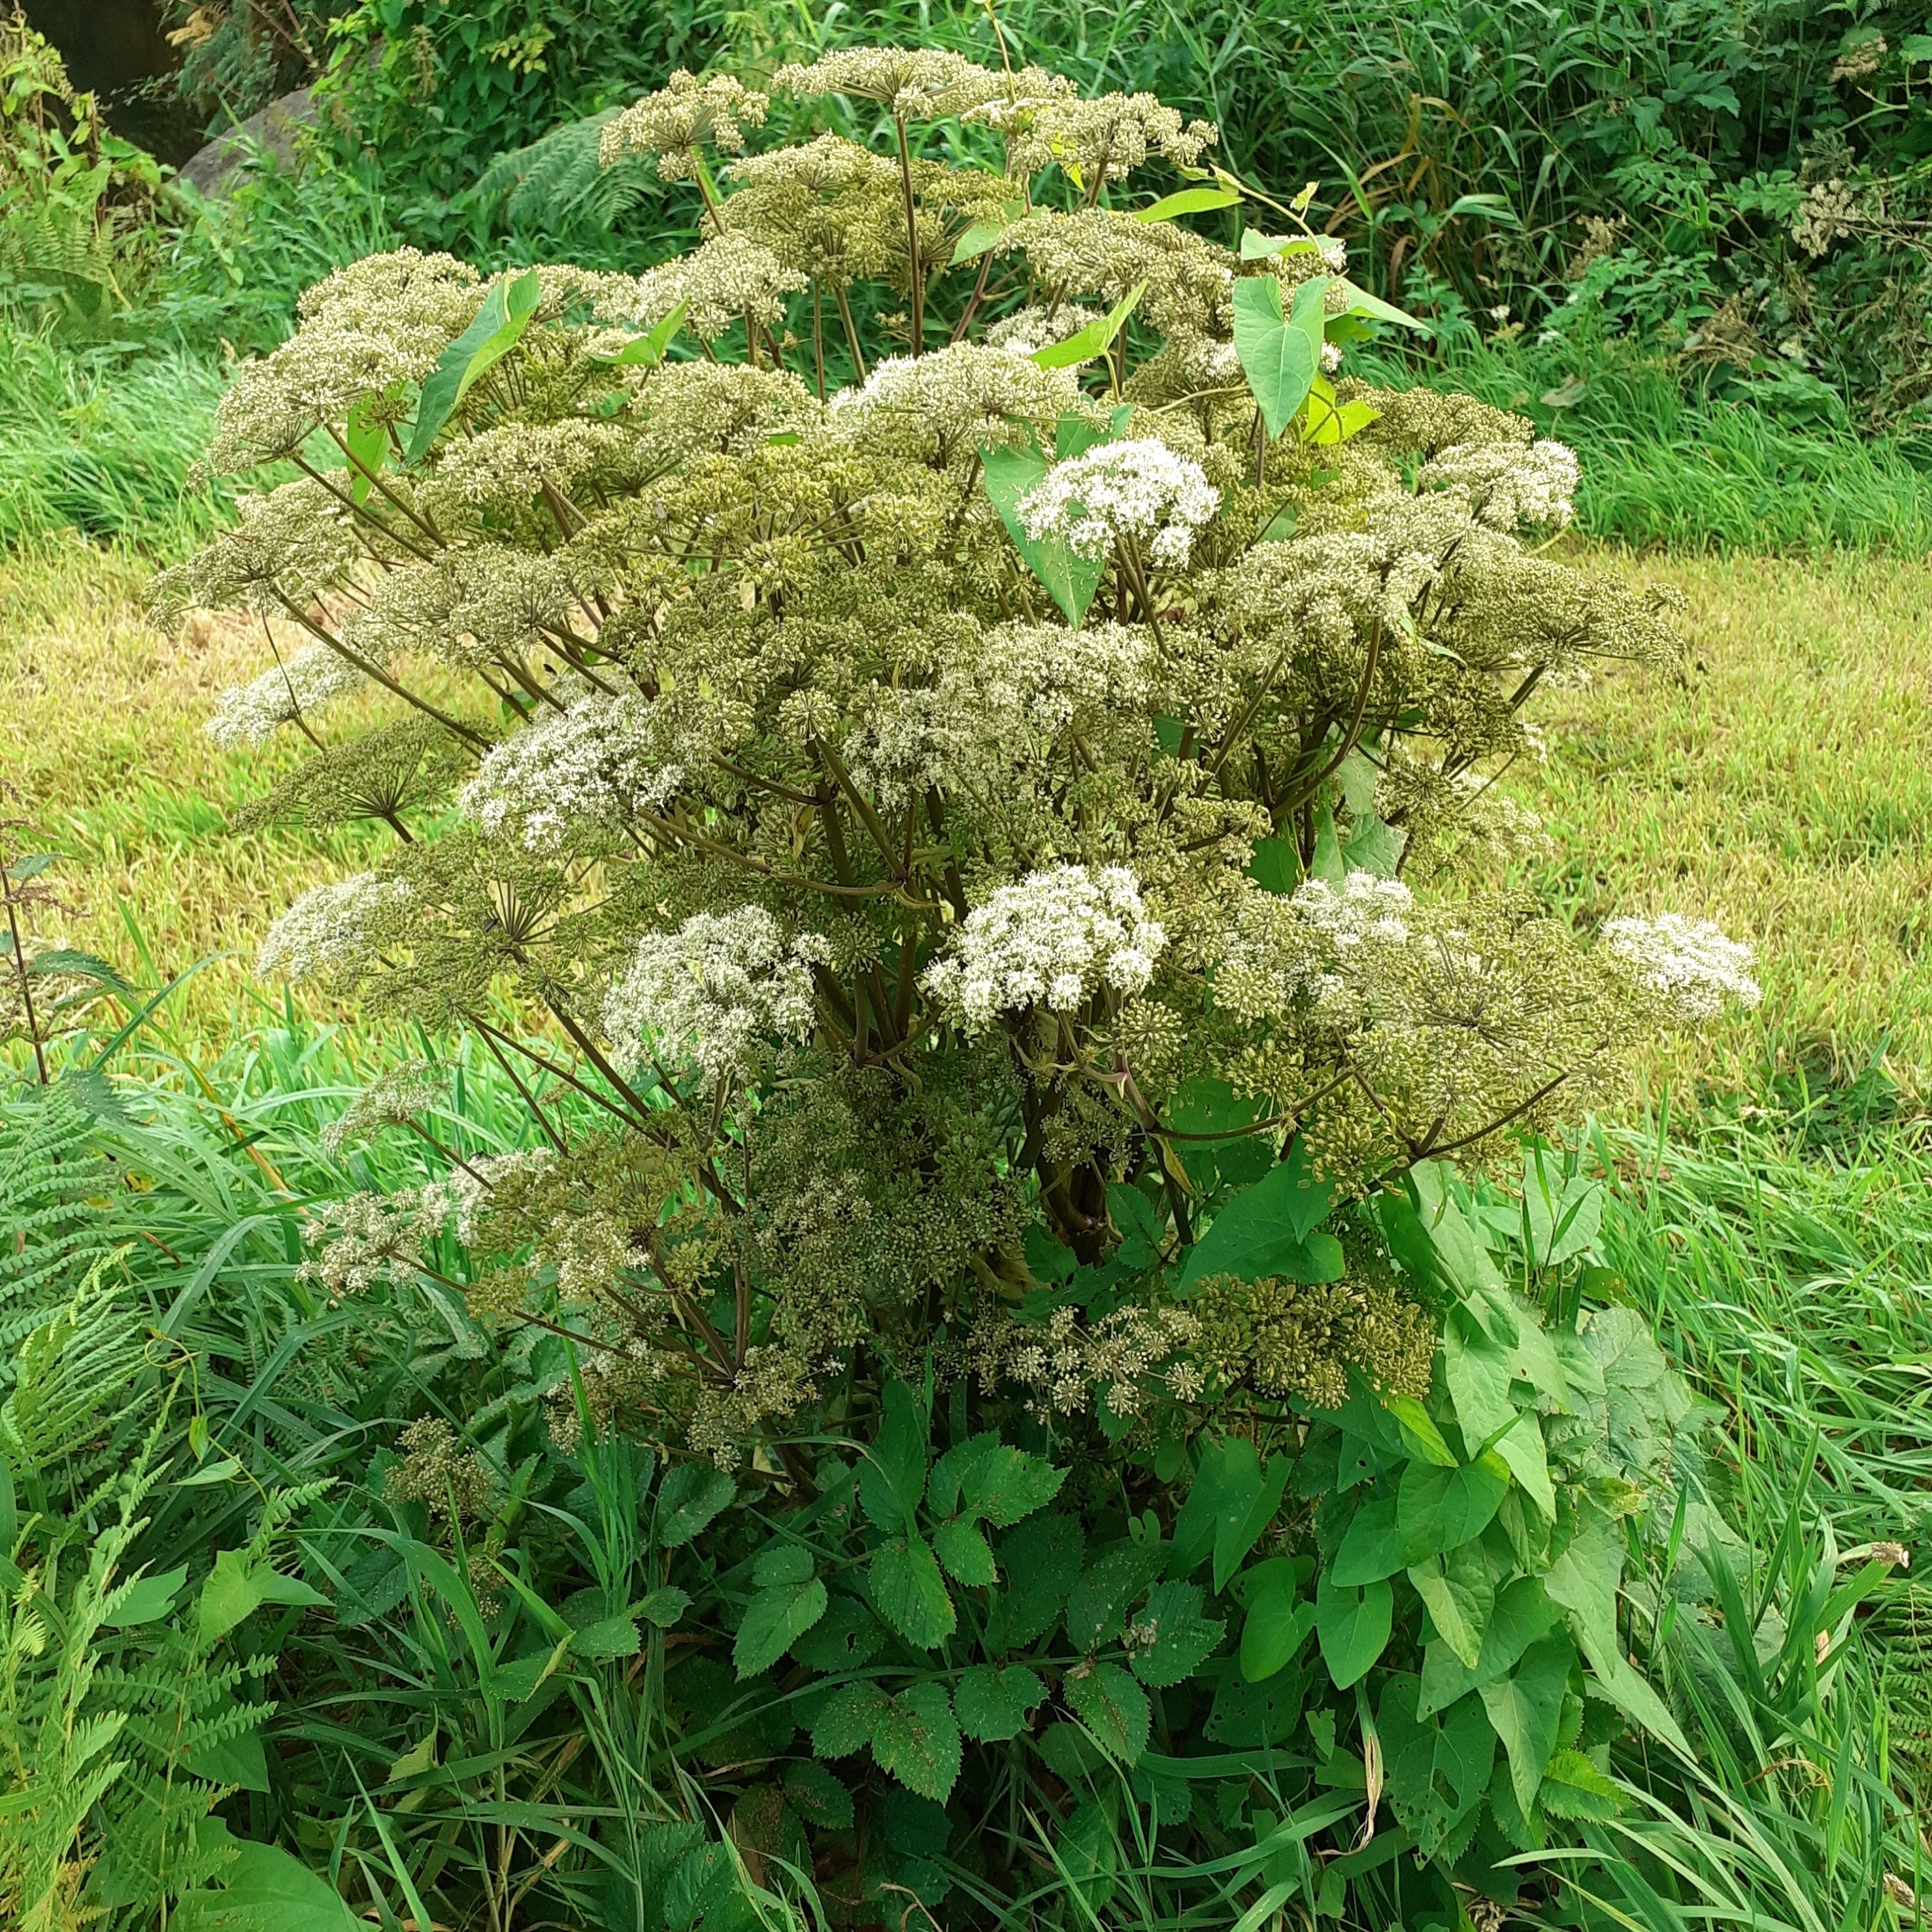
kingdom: Plantae
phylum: Tracheophyta
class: Magnoliopsida
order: Apiales
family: Apiaceae
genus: Angelica
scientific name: Angelica sylvestris
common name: Wild angelica
